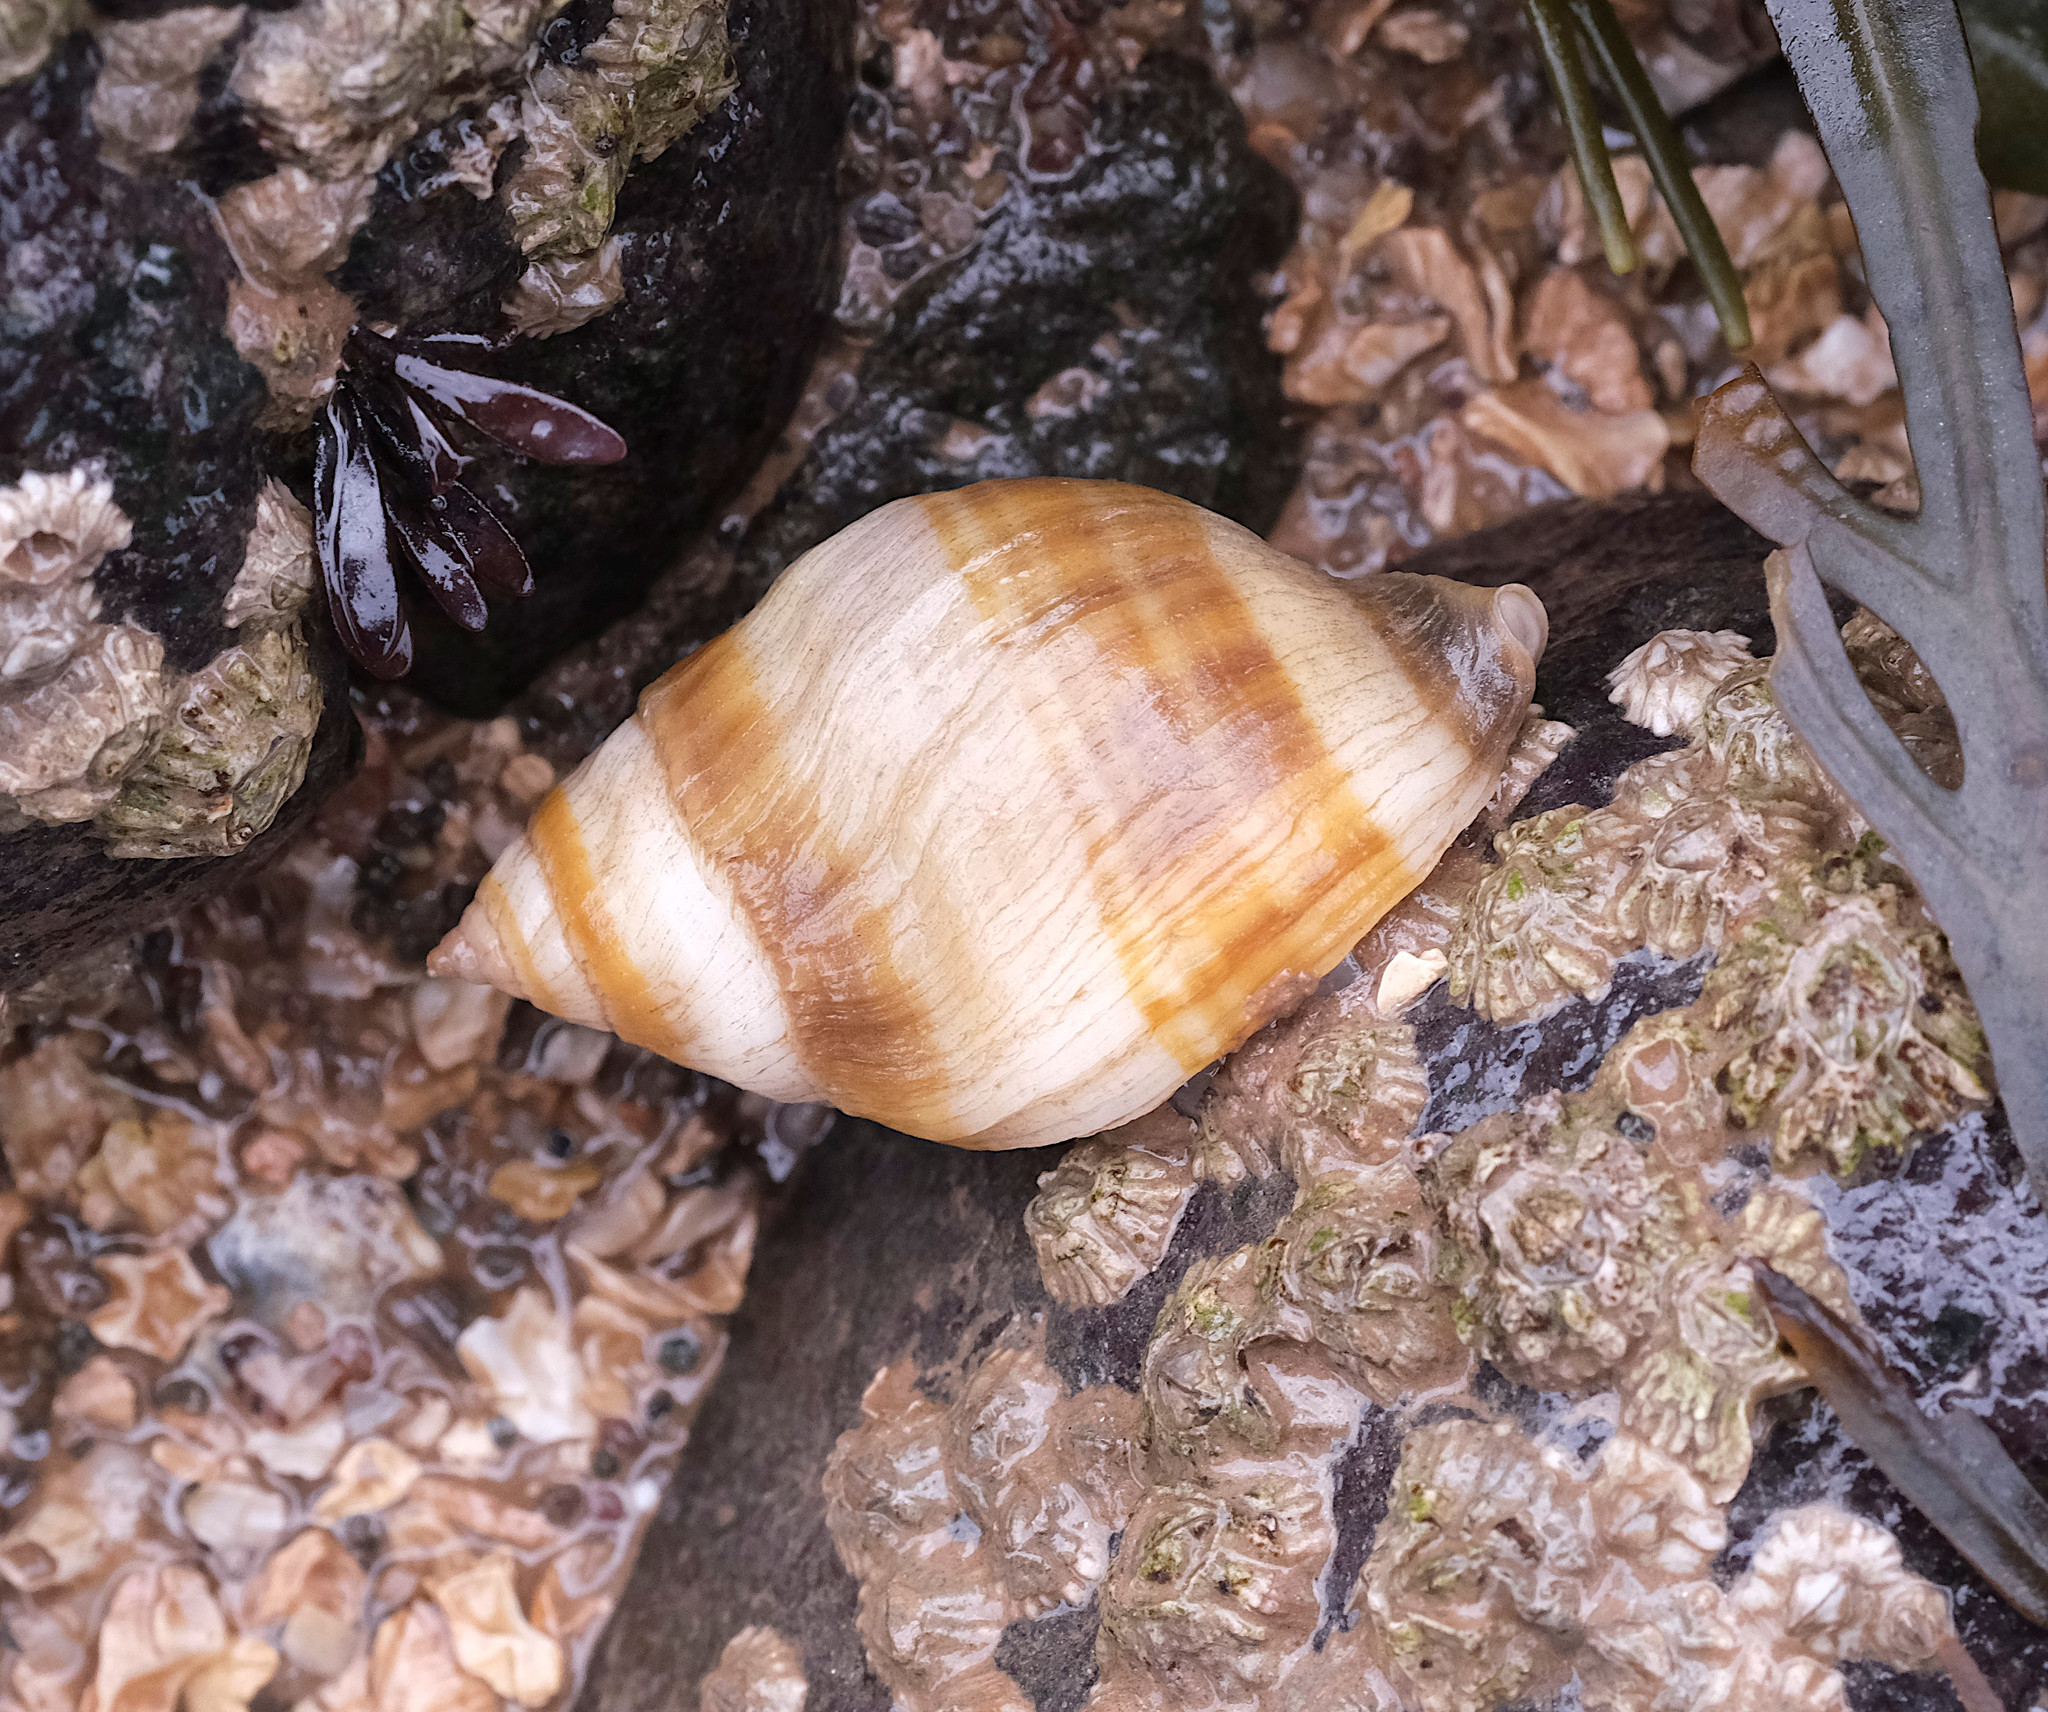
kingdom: Animalia
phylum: Mollusca
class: Gastropoda
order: Neogastropoda
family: Muricidae
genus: Nucella
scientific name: Nucella lapillus
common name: Dog whelk
